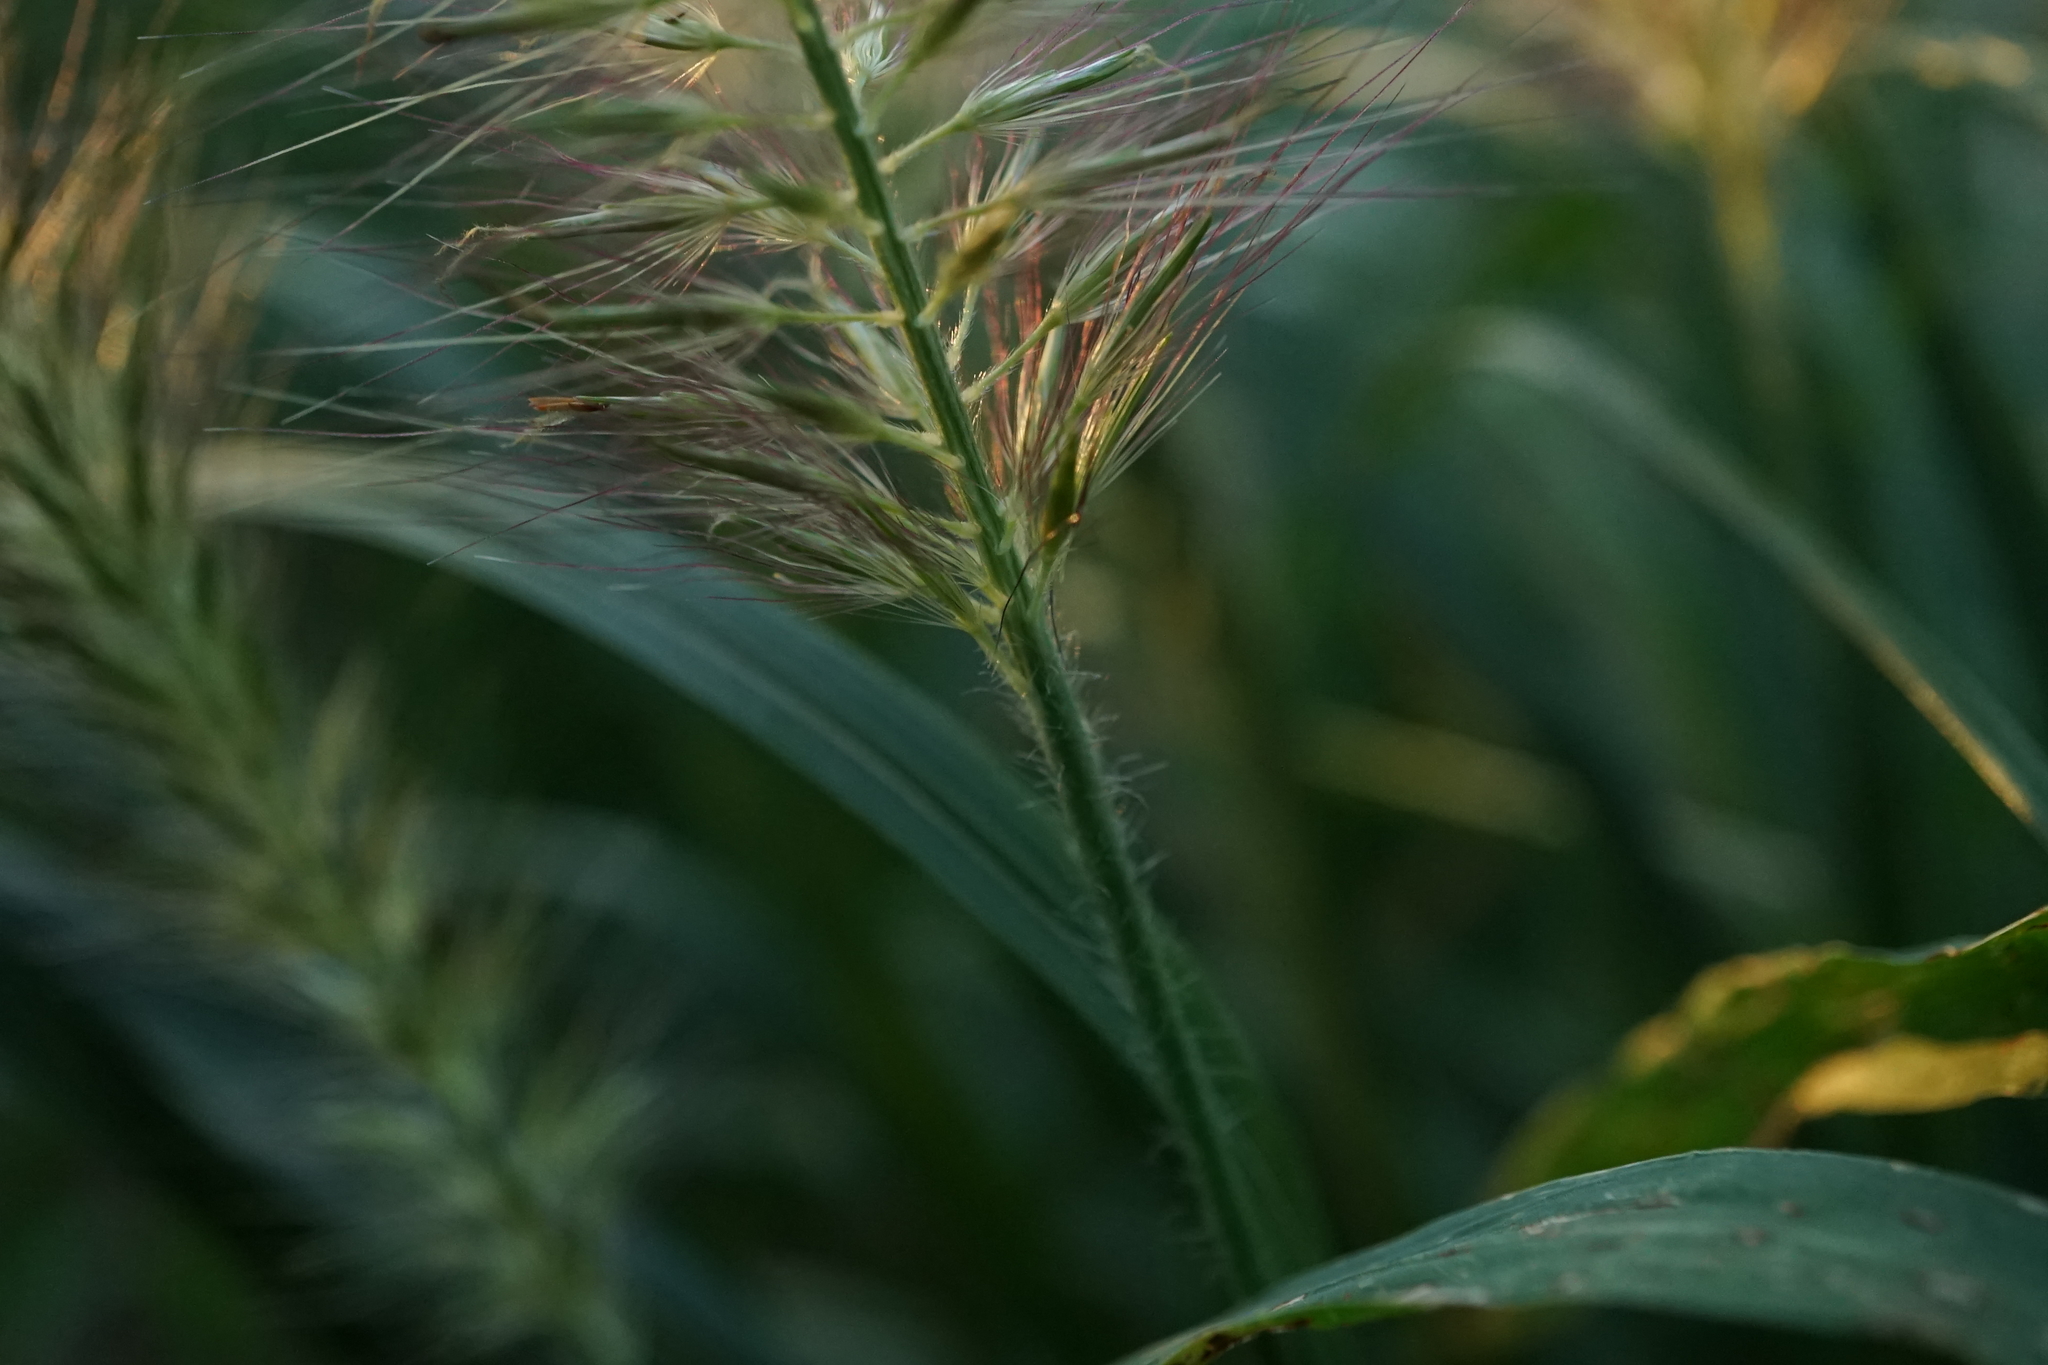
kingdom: Plantae
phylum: Tracheophyta
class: Liliopsida
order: Poales
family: Poaceae
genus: Cenchrus
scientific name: Cenchrus alopecuroides
